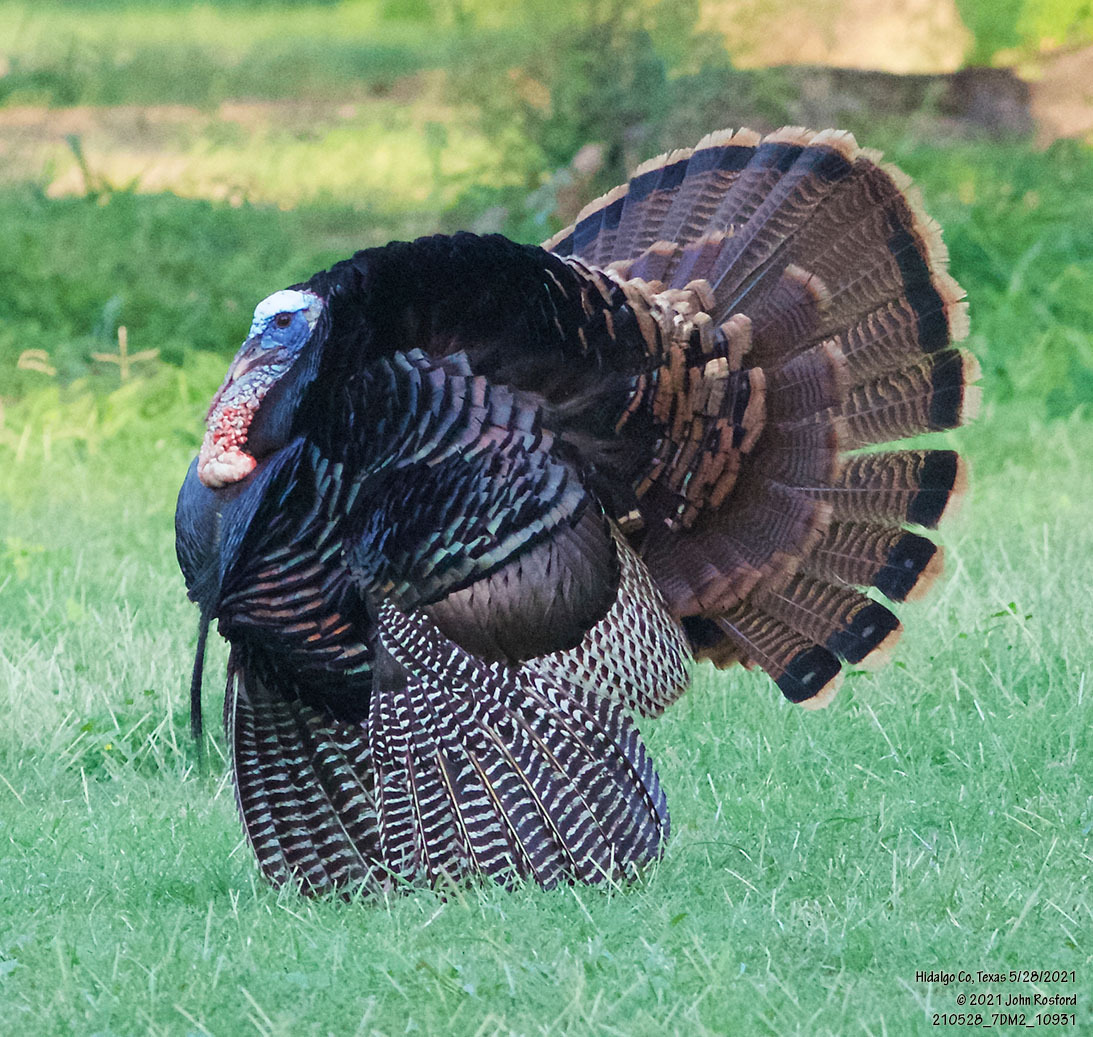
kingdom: Animalia
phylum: Chordata
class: Aves
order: Galliformes
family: Phasianidae
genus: Meleagris
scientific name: Meleagris gallopavo
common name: Wild turkey
